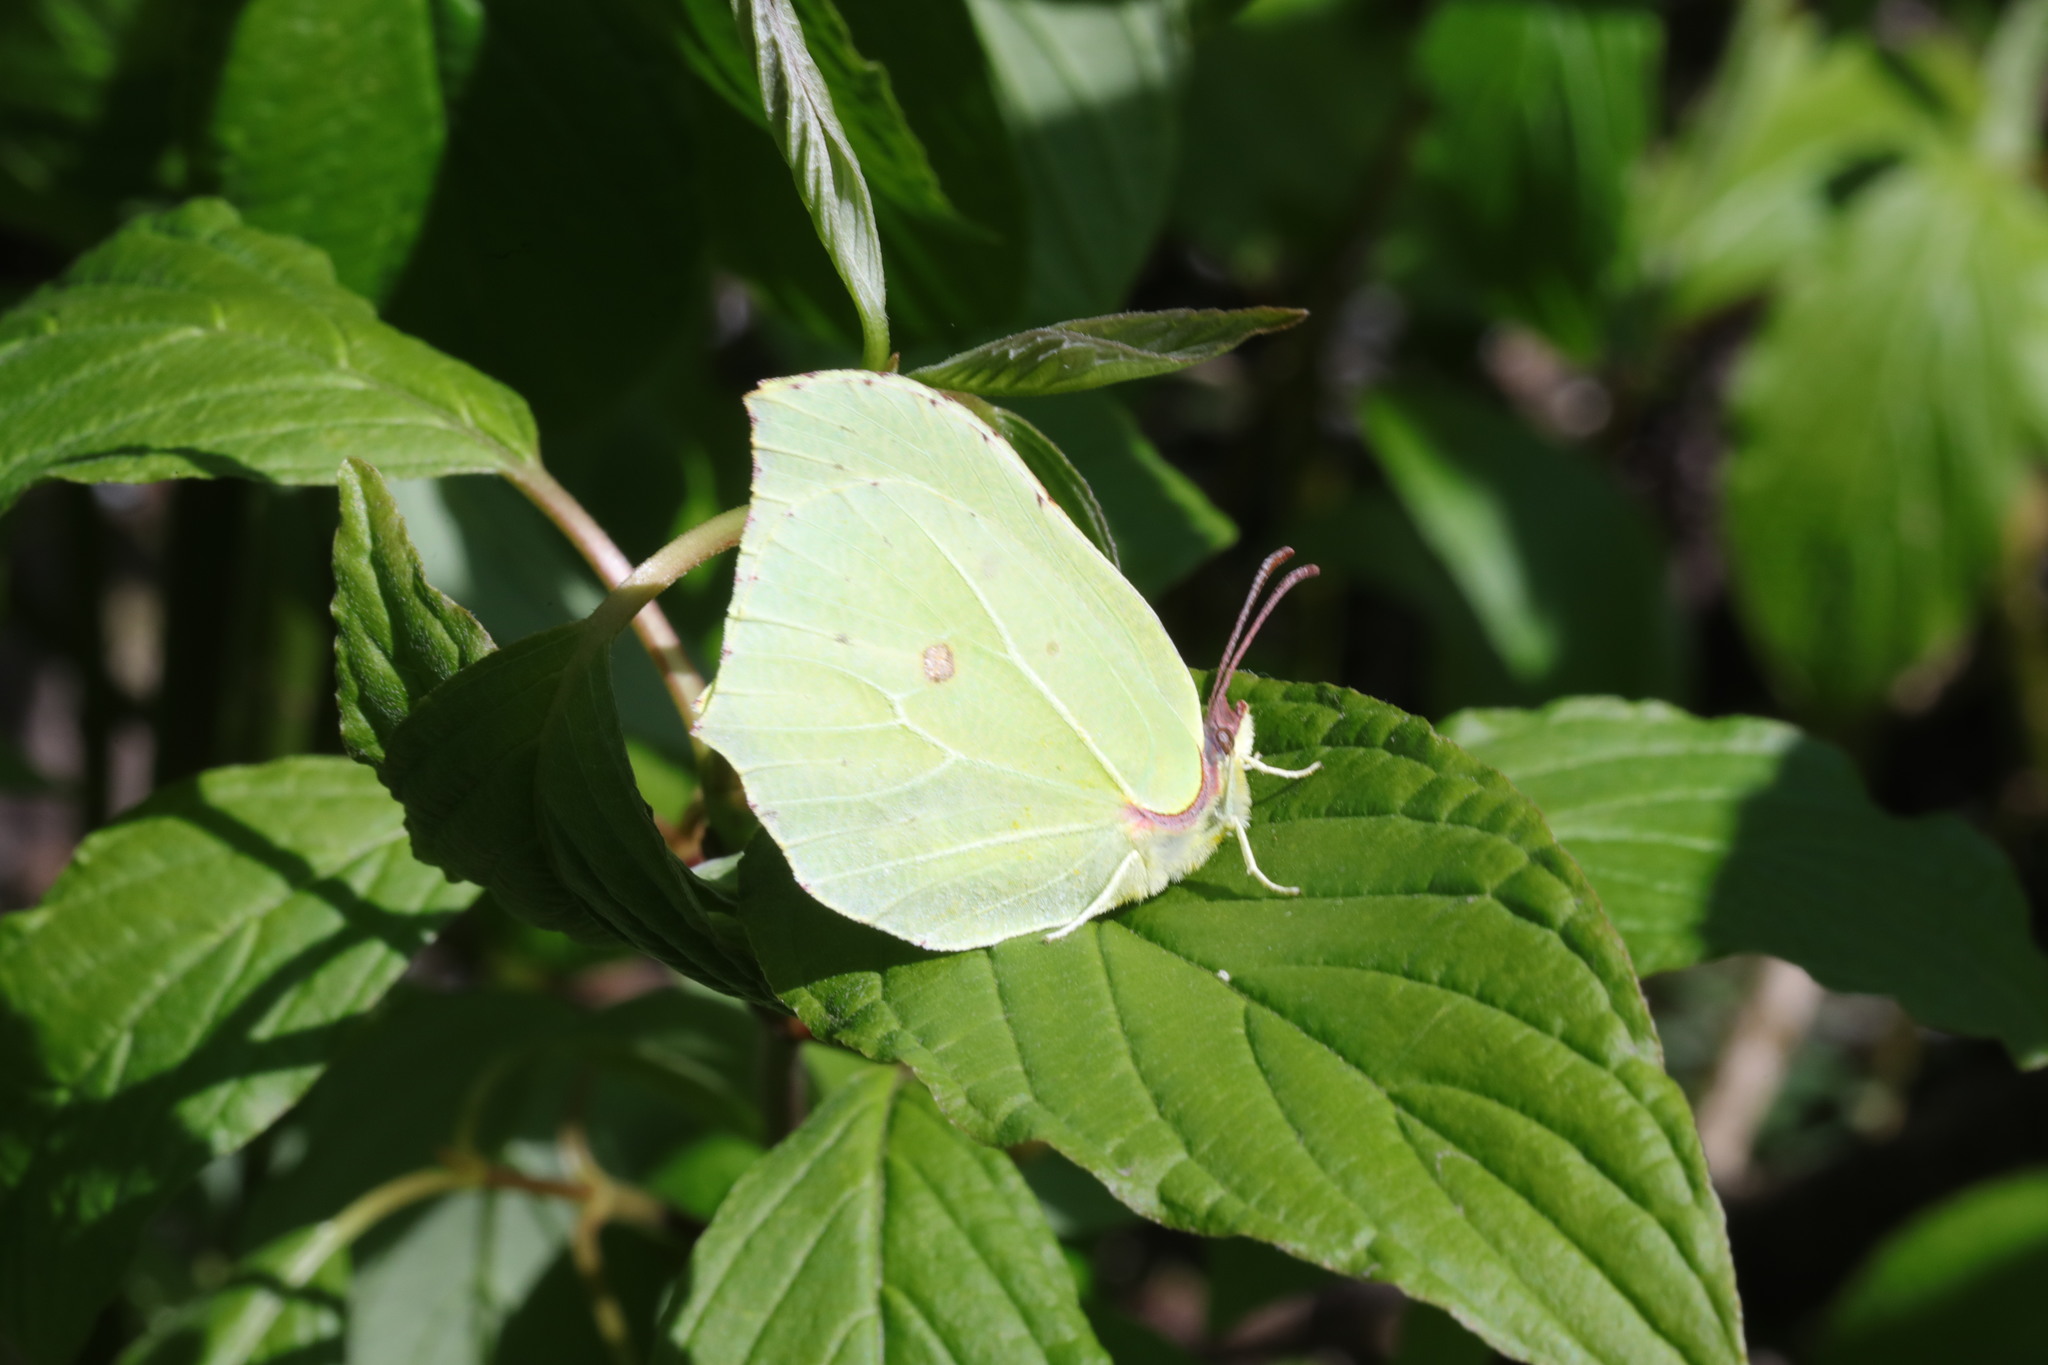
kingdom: Animalia
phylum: Arthropoda
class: Insecta
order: Lepidoptera
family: Pieridae
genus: Gonepteryx
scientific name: Gonepteryx rhamni
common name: Brimstone
